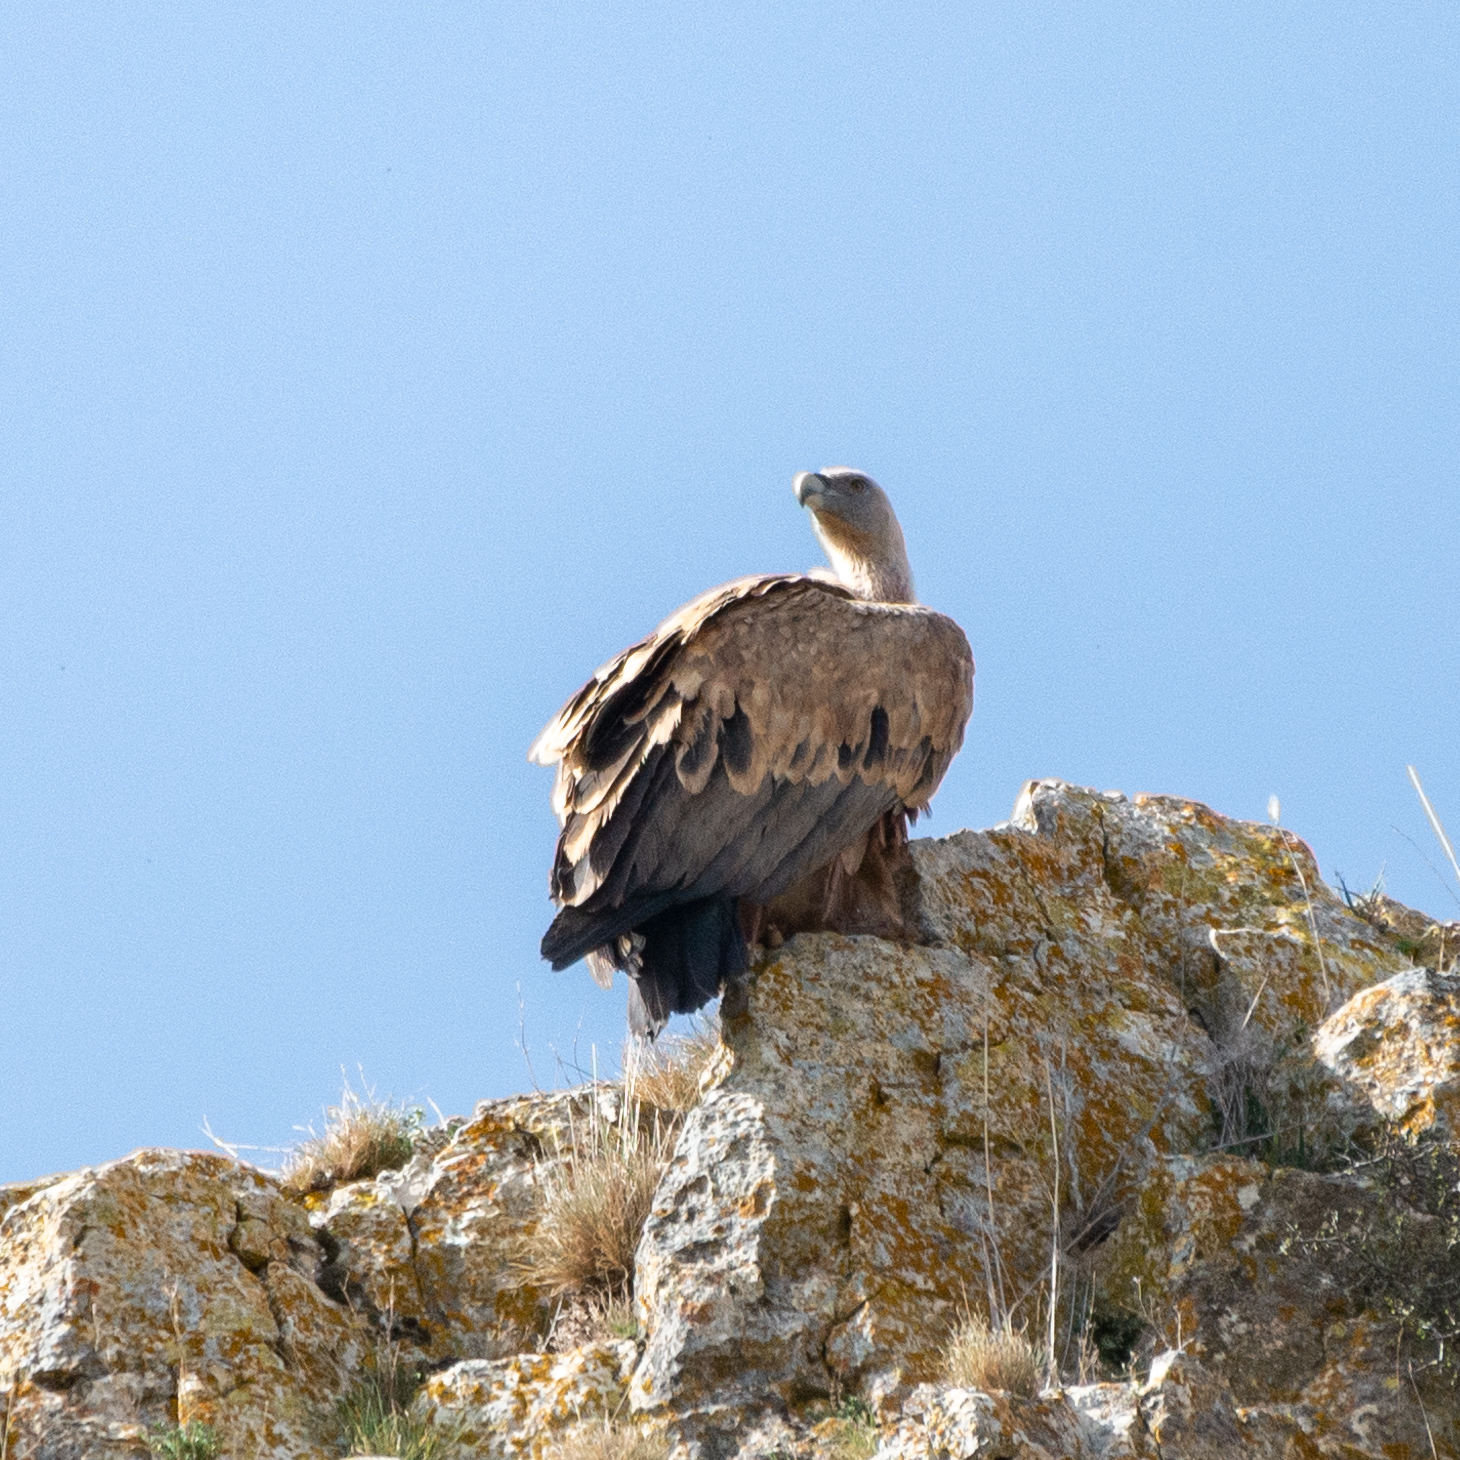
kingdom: Animalia
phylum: Chordata
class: Aves
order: Accipitriformes
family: Accipitridae
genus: Gyps
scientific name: Gyps fulvus
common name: Griffon vulture
